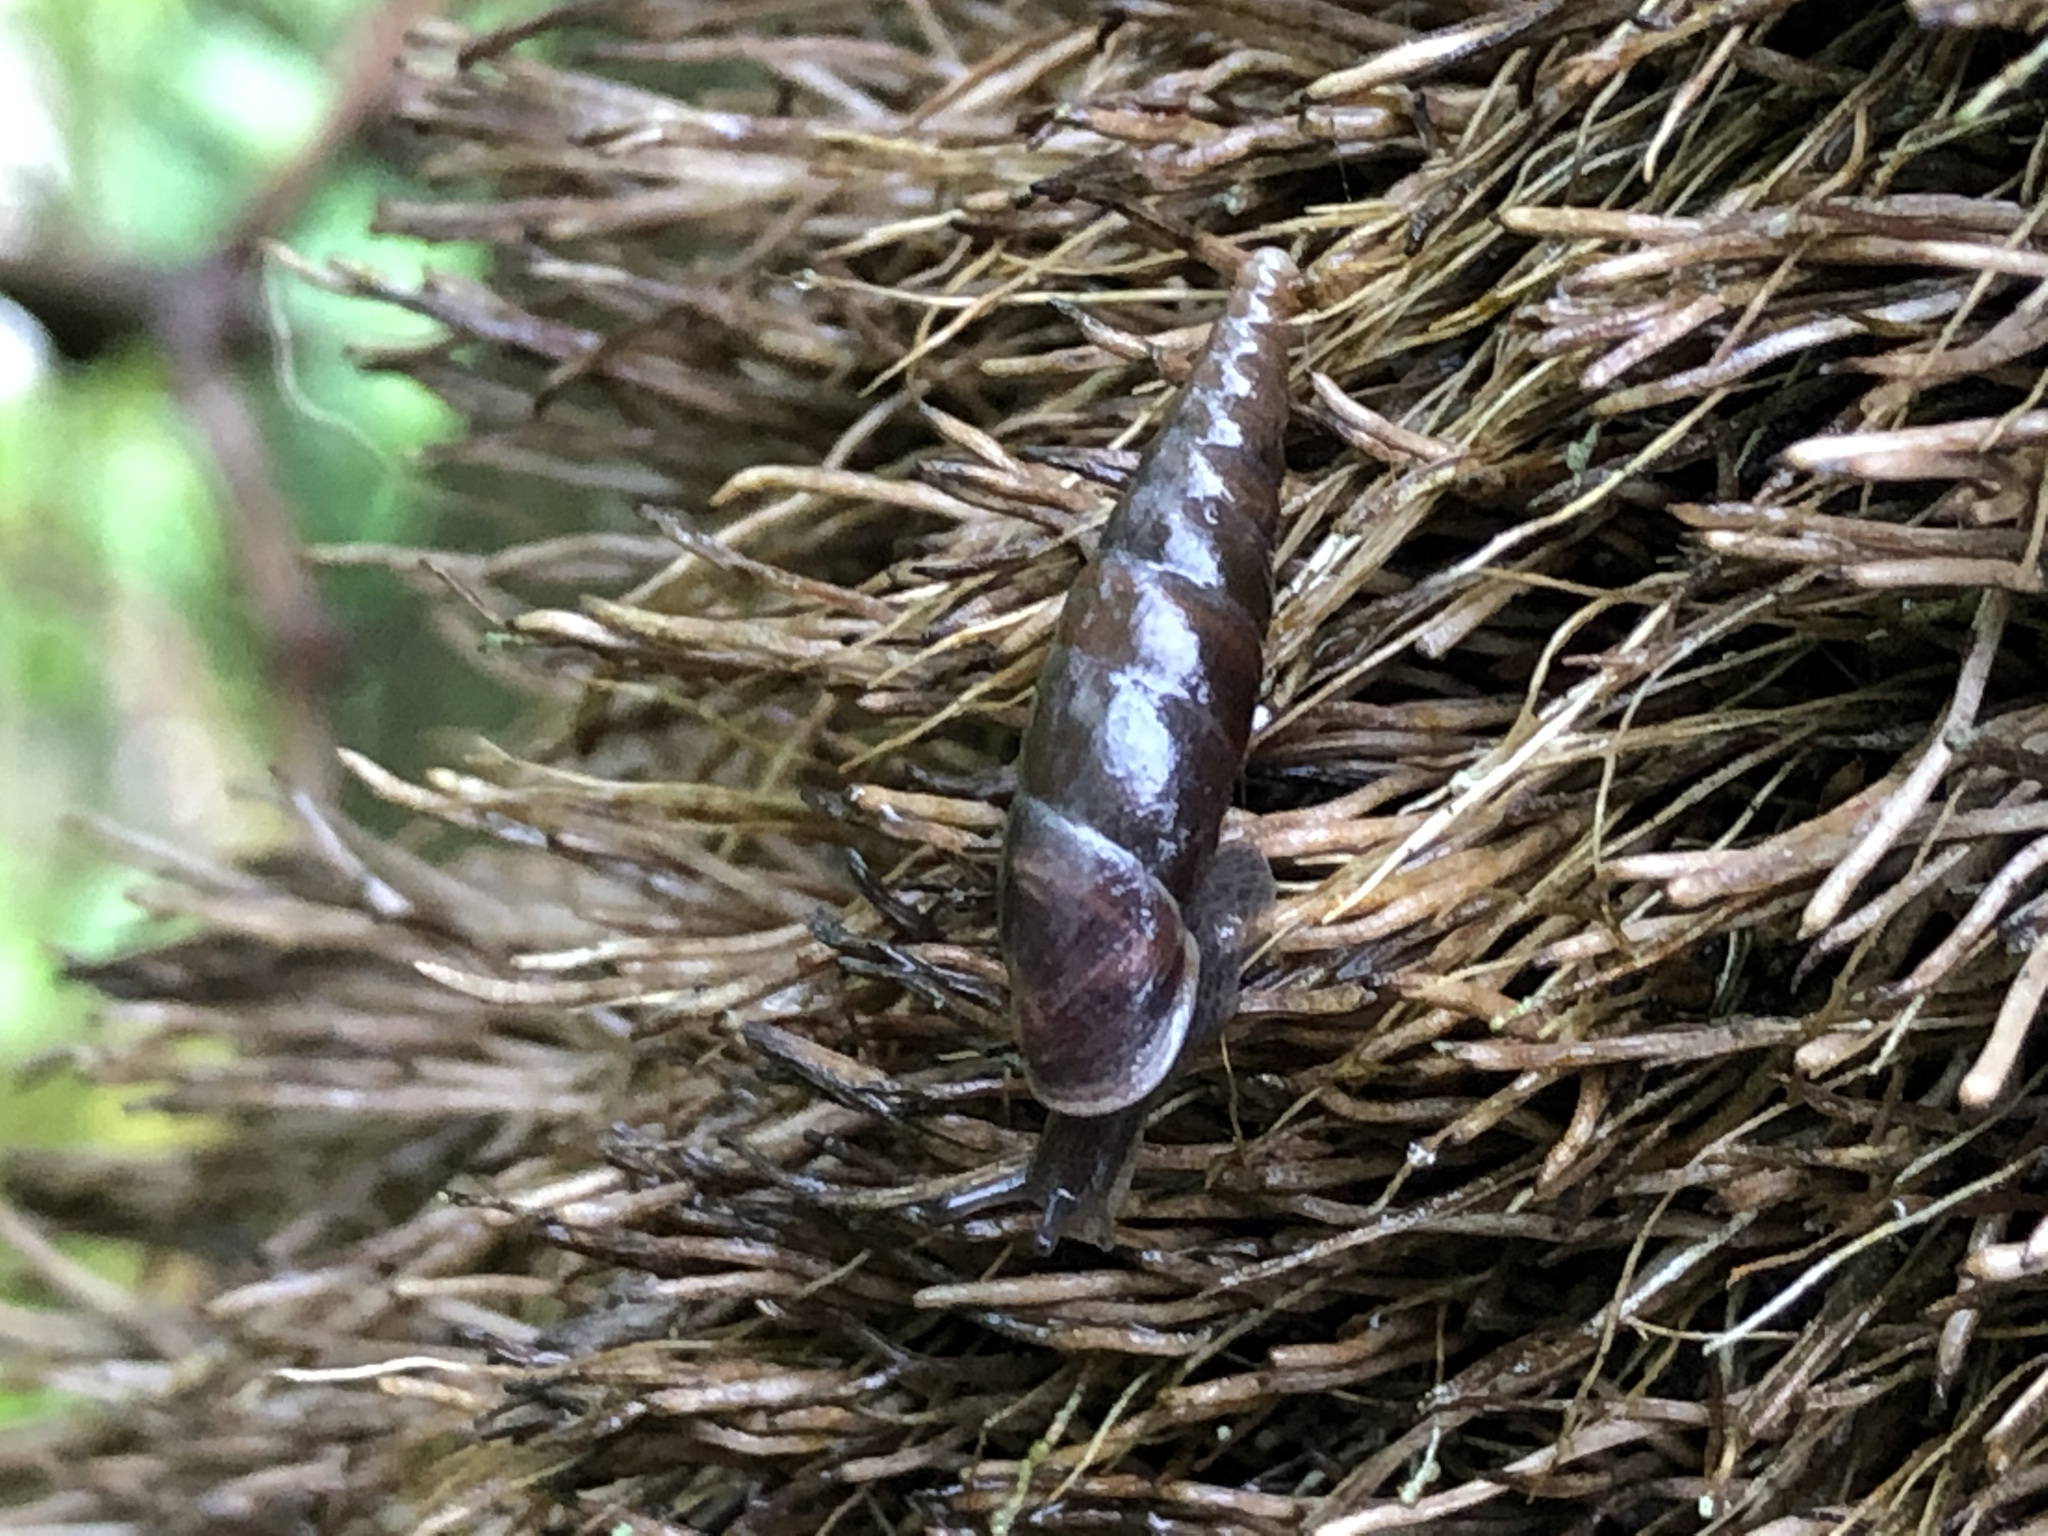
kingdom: Animalia
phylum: Mollusca
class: Gastropoda
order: Stylommatophora
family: Clausiliidae
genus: Cochlodina
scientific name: Cochlodina laminata
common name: Plaited door snail
